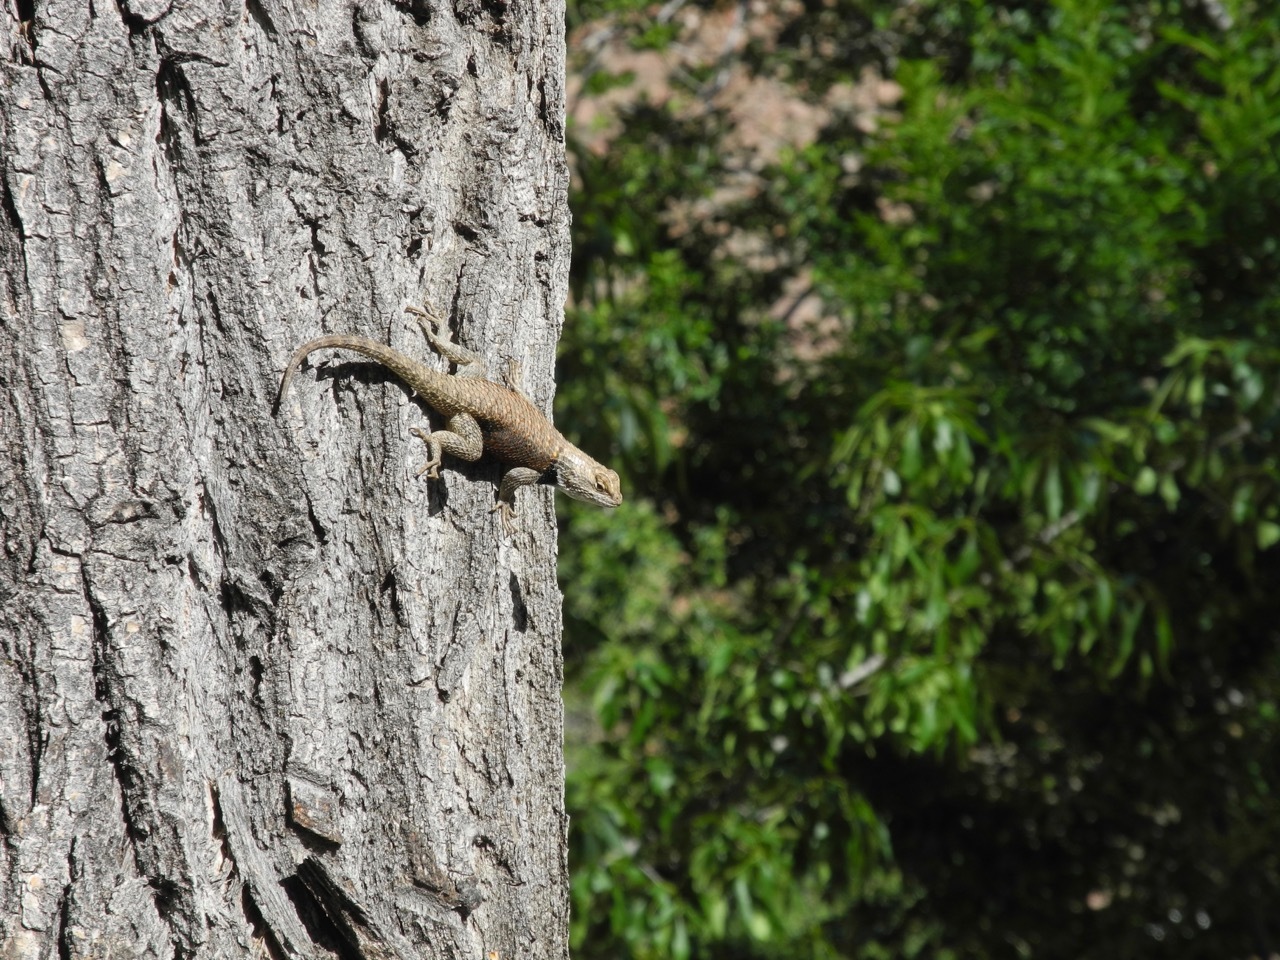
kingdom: Animalia
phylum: Chordata
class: Squamata
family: Phrynosomatidae
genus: Sceloporus
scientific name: Sceloporus uniformis
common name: Yellow-backed spiny lizard
